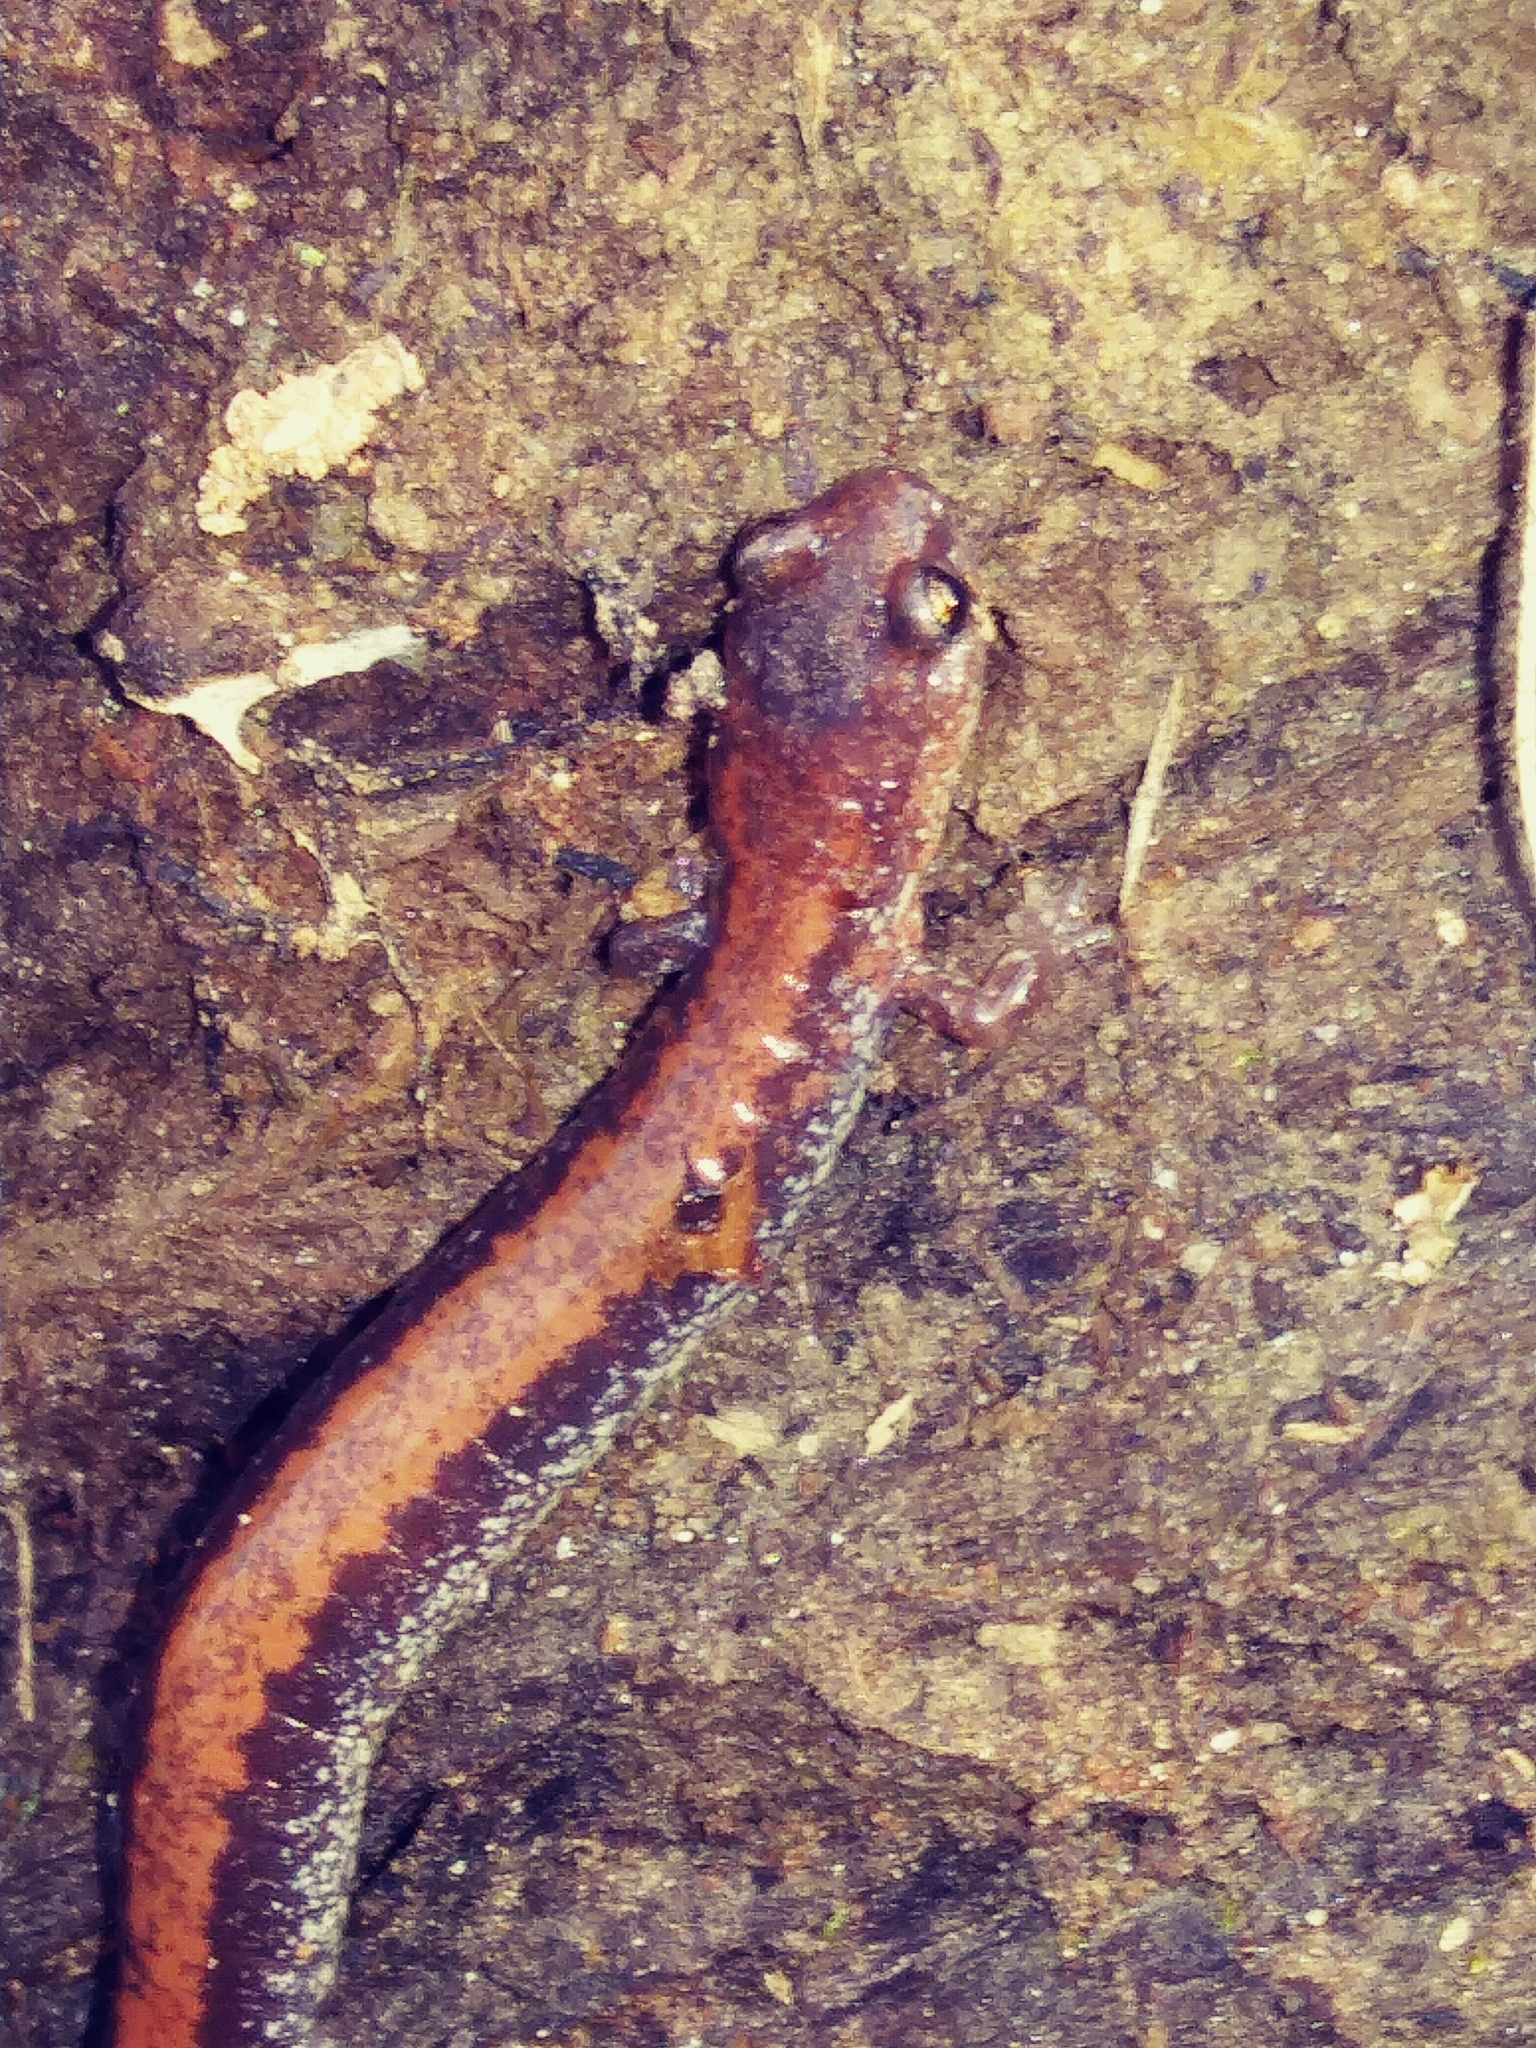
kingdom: Animalia
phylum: Chordata
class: Amphibia
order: Caudata
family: Plethodontidae
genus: Plethodon
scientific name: Plethodon cinereus
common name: Redback salamander
